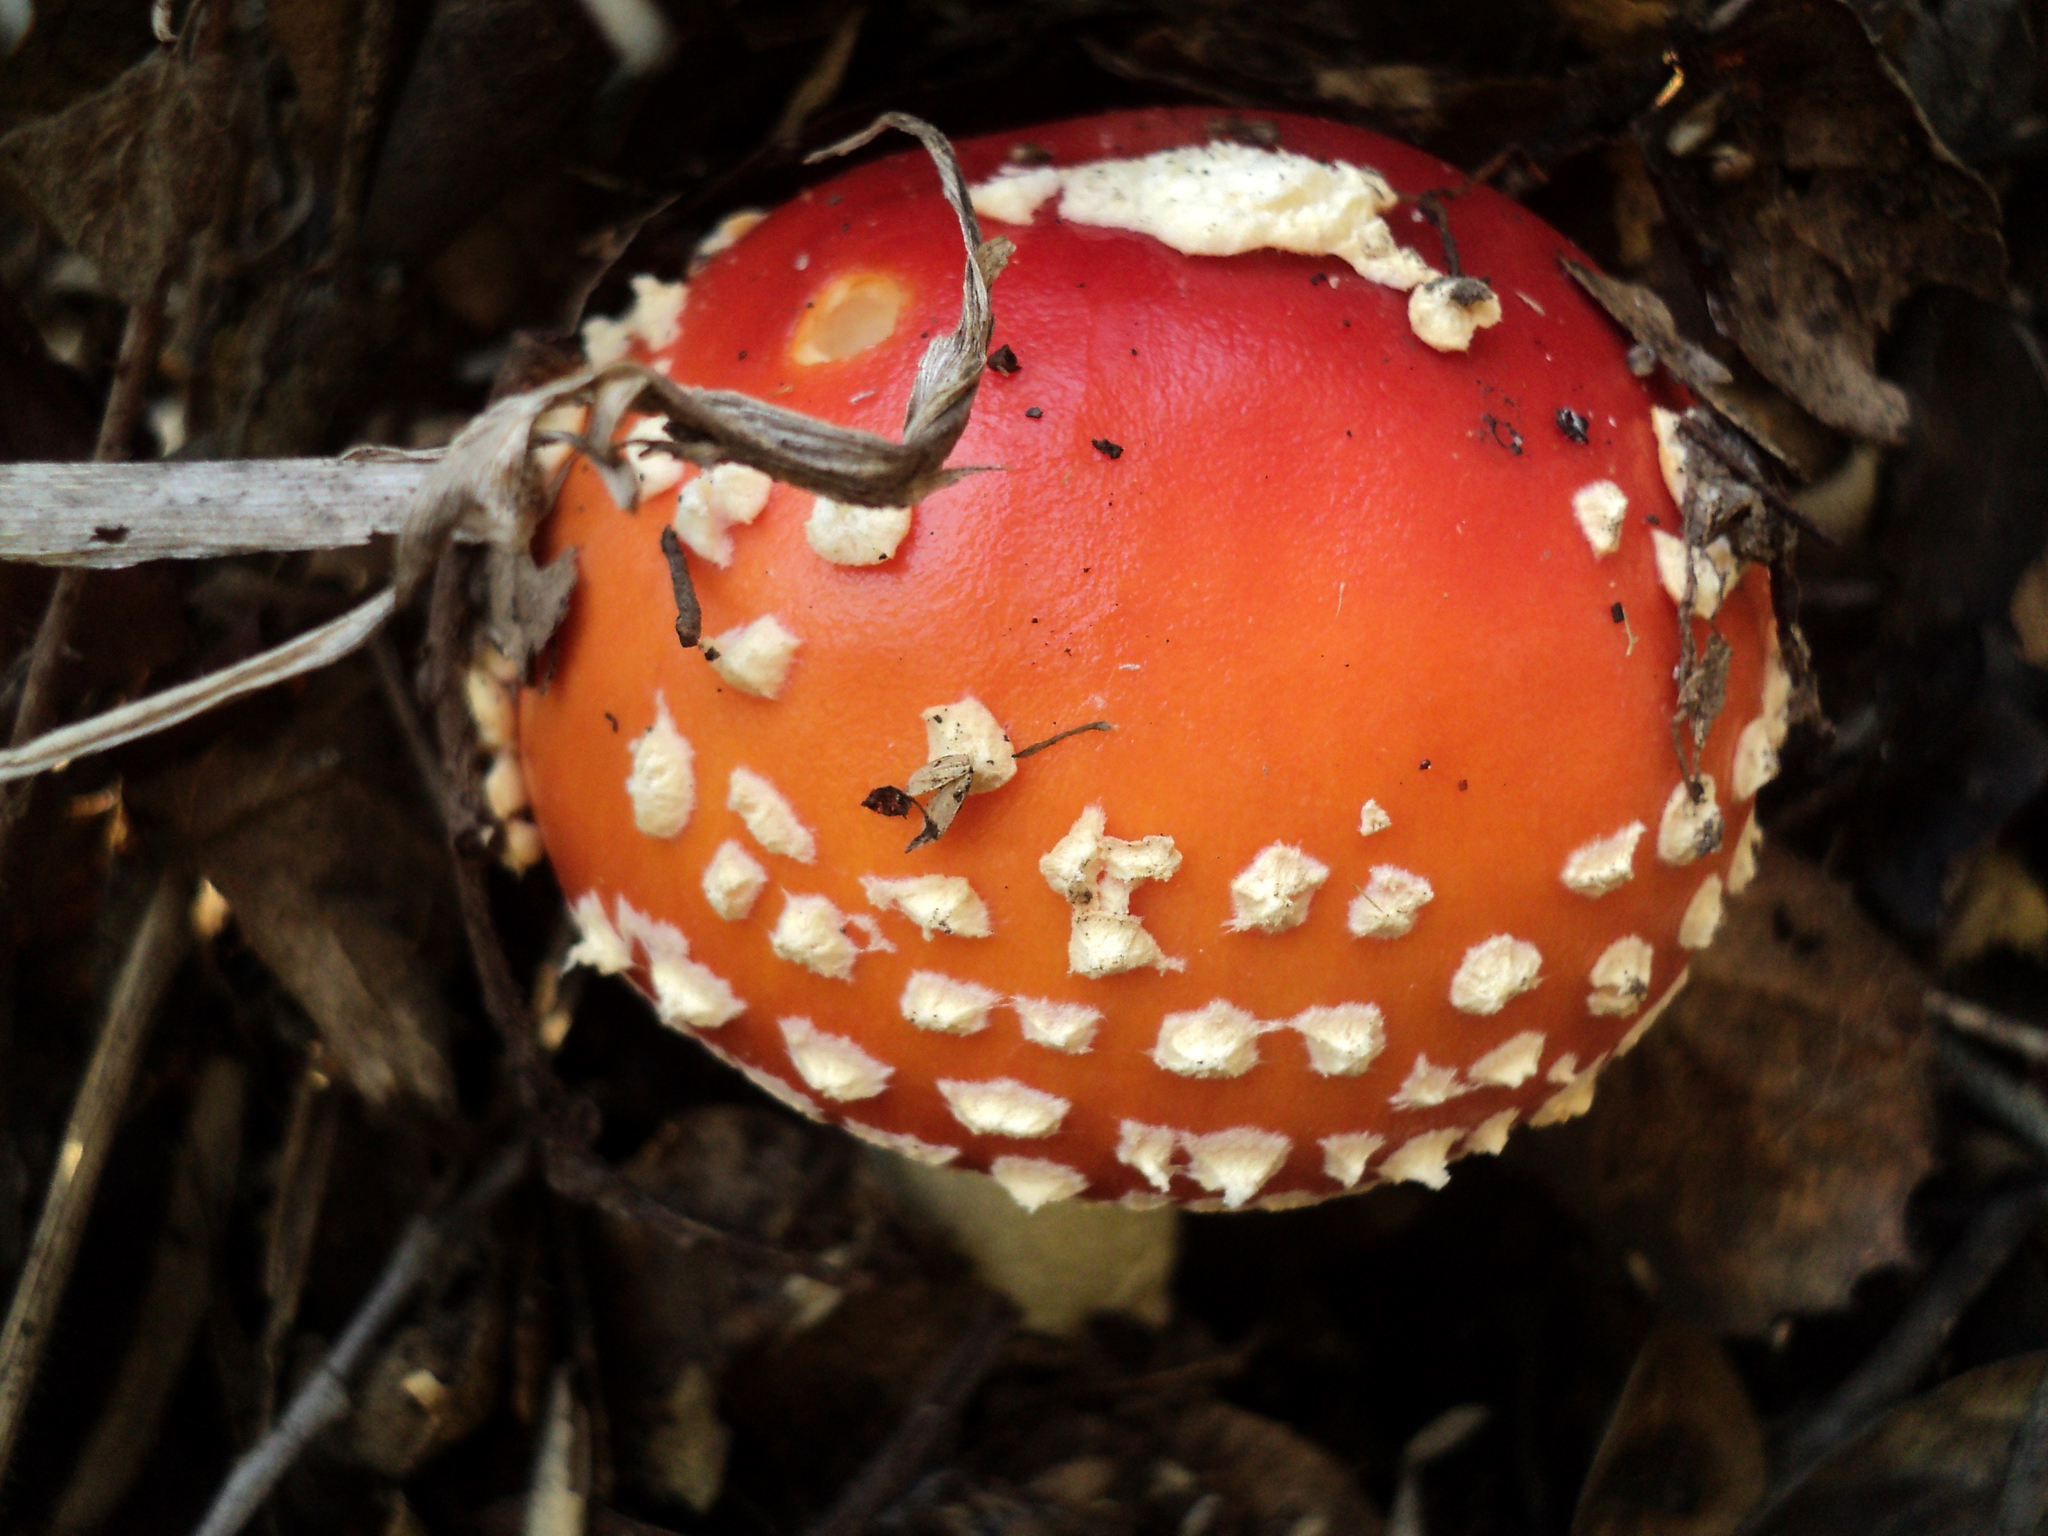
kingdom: Fungi
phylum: Basidiomycota
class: Agaricomycetes
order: Agaricales
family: Amanitaceae
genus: Amanita
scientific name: Amanita muscaria
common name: Fly agaric
